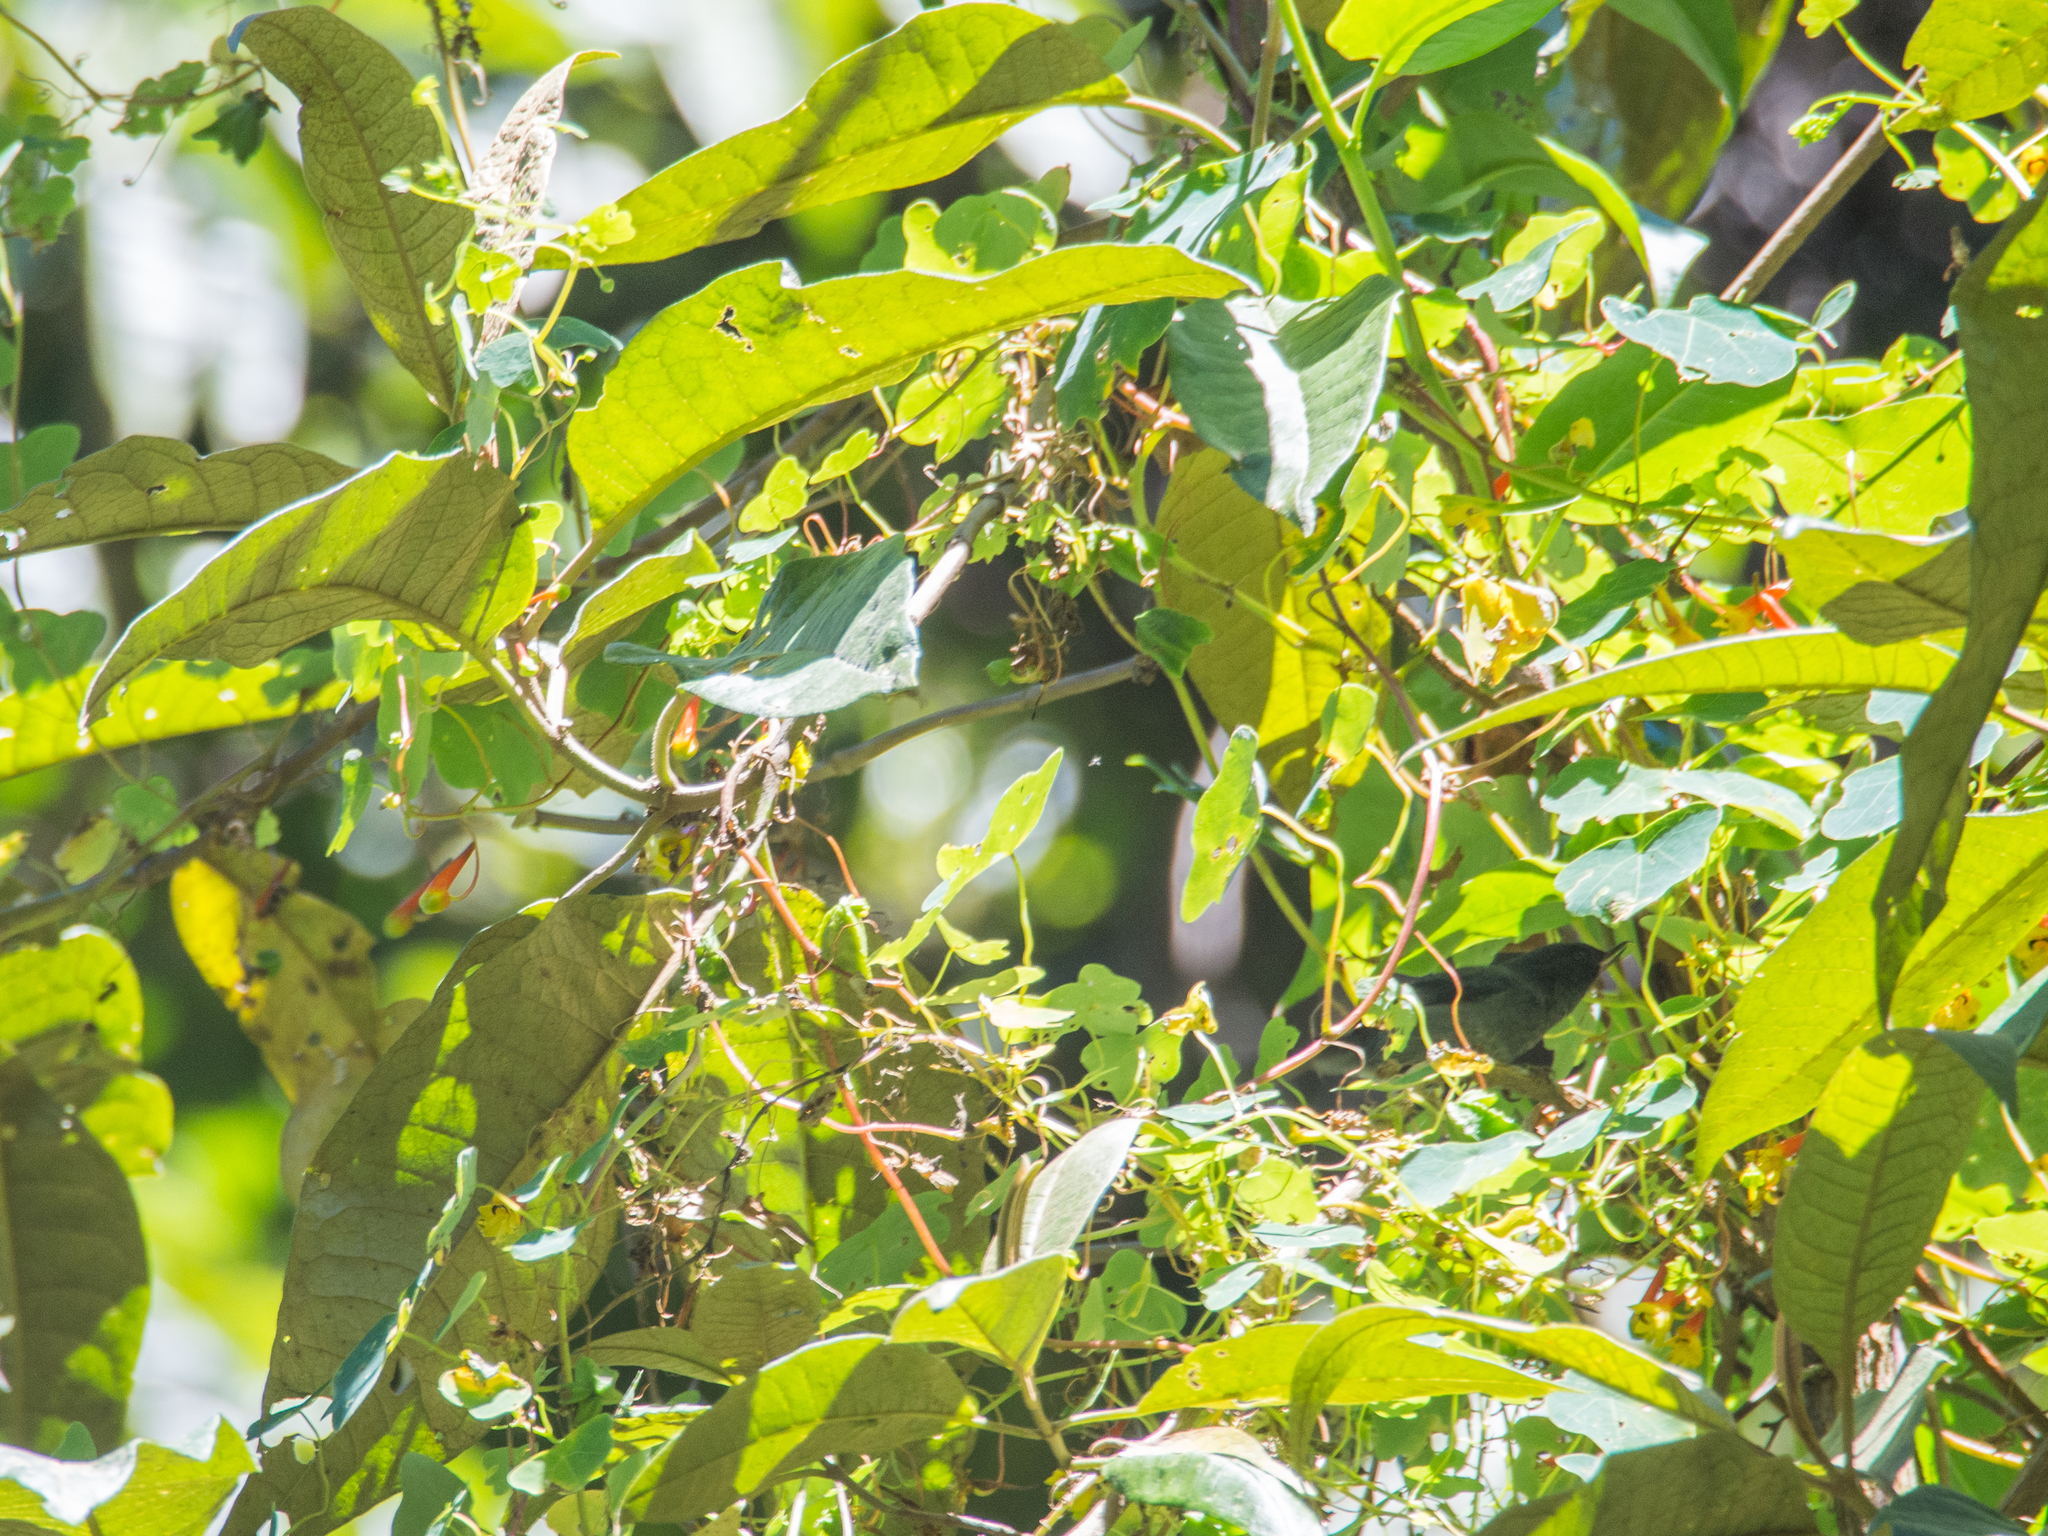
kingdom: Plantae
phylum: Tracheophyta
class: Magnoliopsida
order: Brassicales
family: Tropaeolaceae
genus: Tropaeolum
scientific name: Tropaeolum emarginatum
